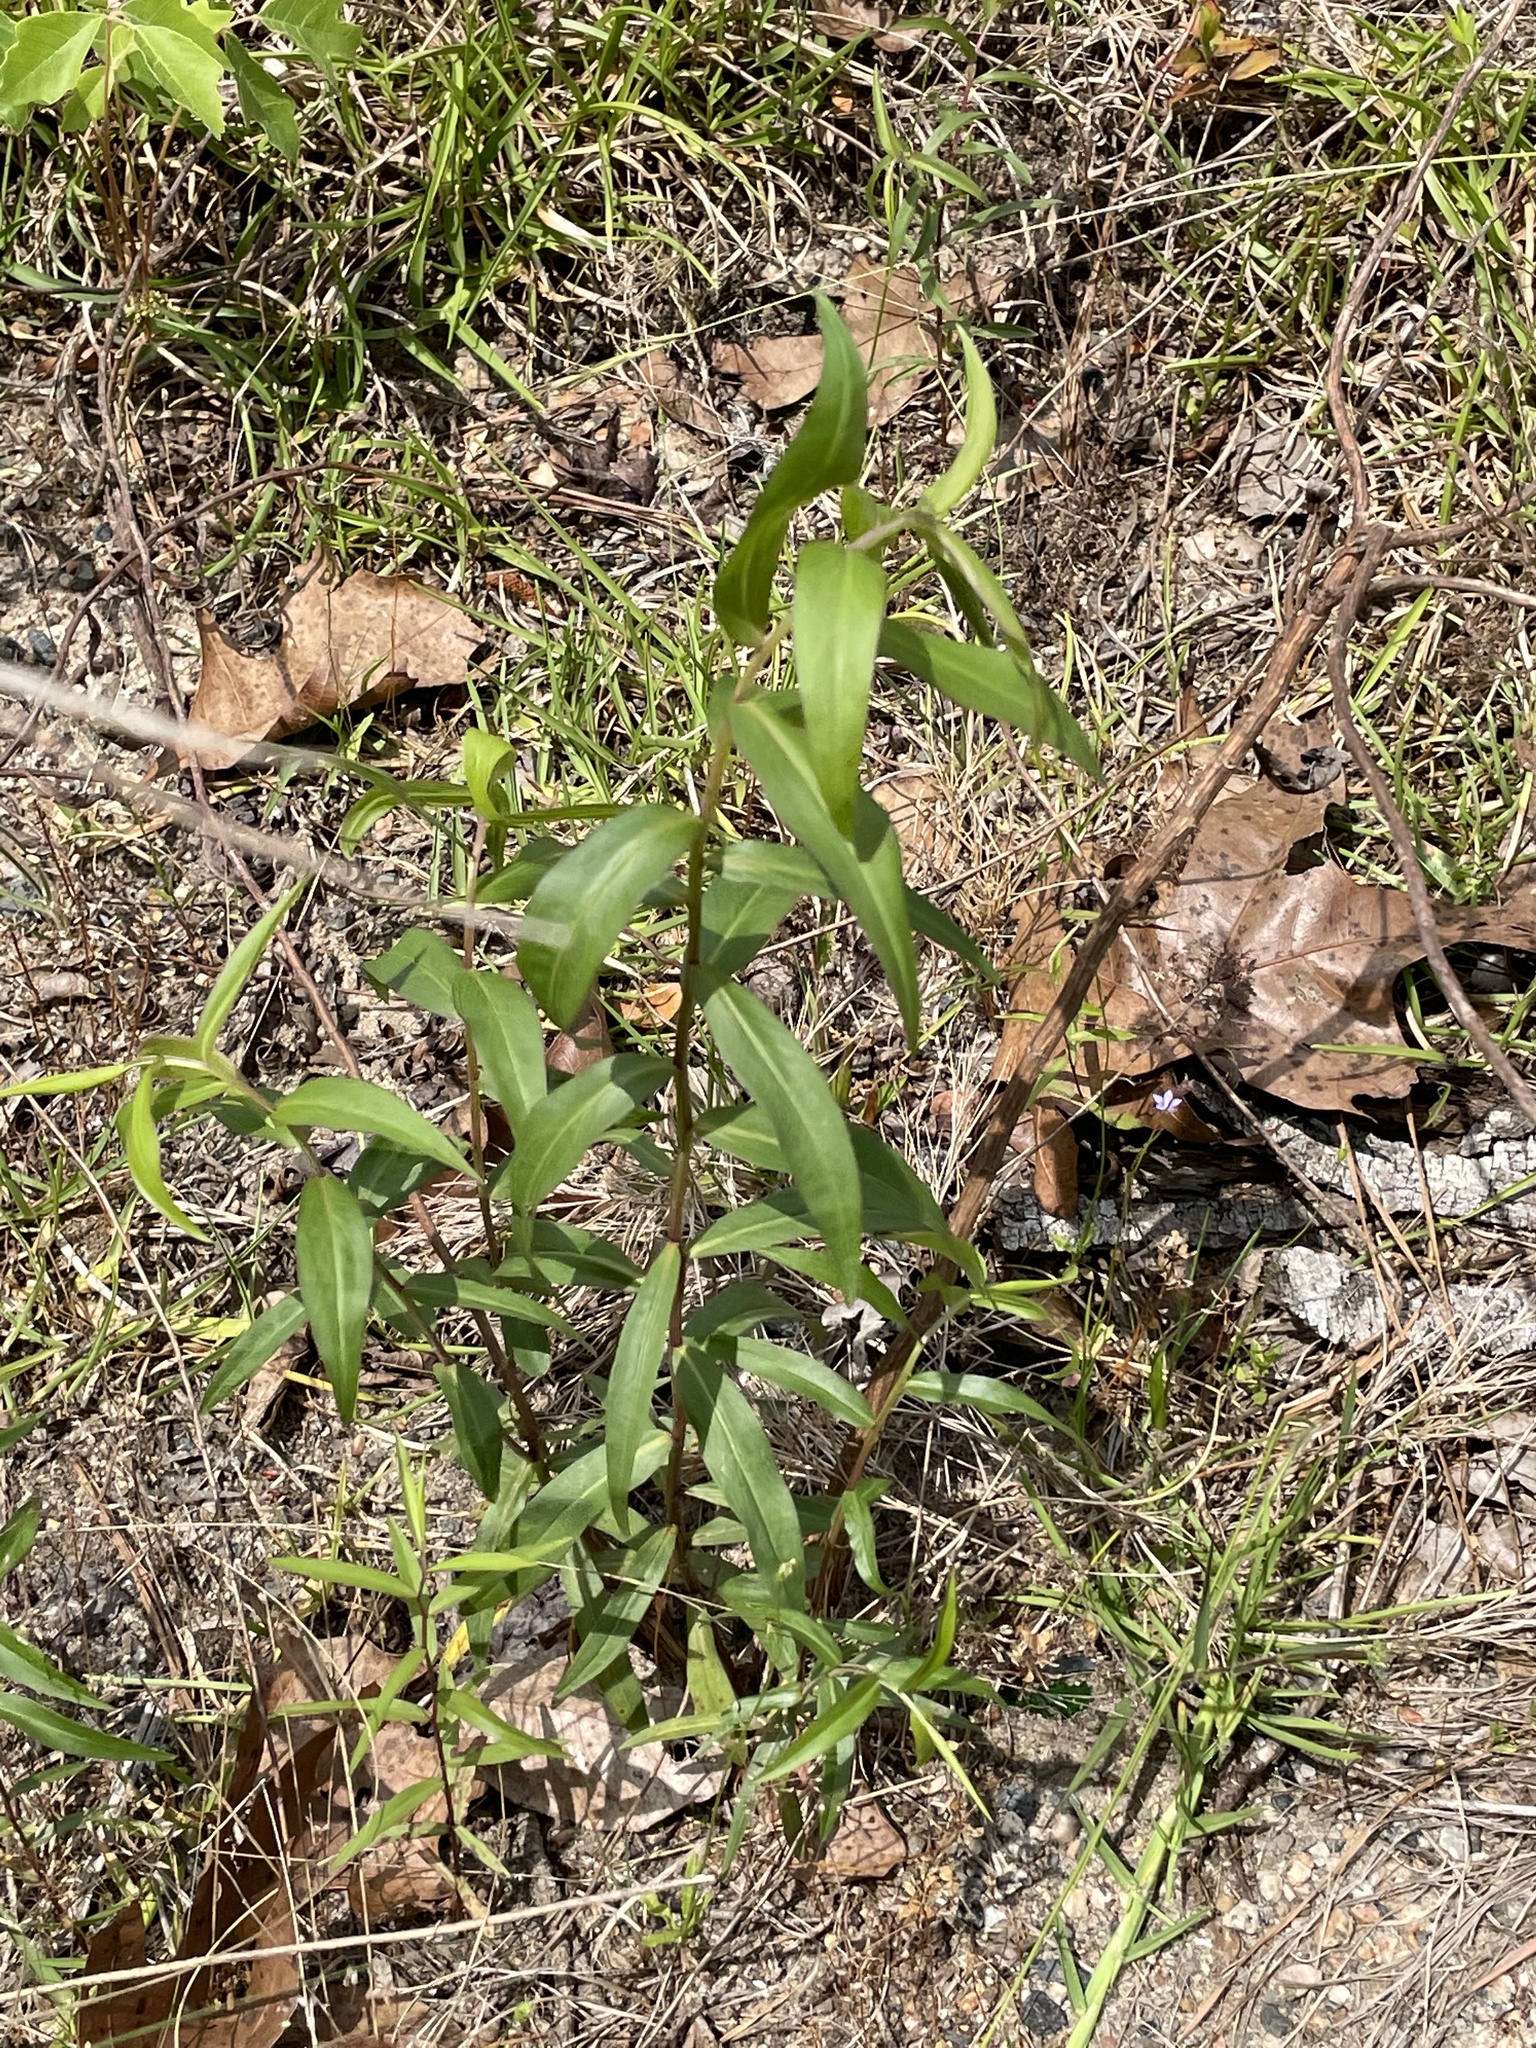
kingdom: Plantae
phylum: Tracheophyta
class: Magnoliopsida
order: Asterales
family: Asteraceae
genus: Solidago
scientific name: Solidago odora
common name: Anise-scented goldenrod
